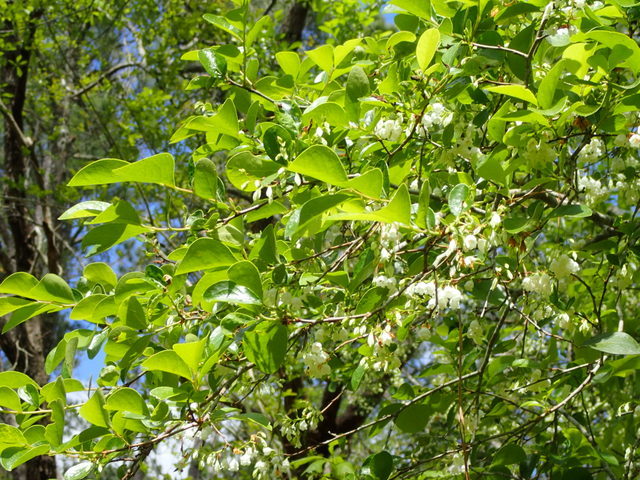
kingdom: Plantae
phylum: Tracheophyta
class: Magnoliopsida
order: Ericales
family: Ericaceae
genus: Vaccinium
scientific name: Vaccinium arboreum
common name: Farkleberry
